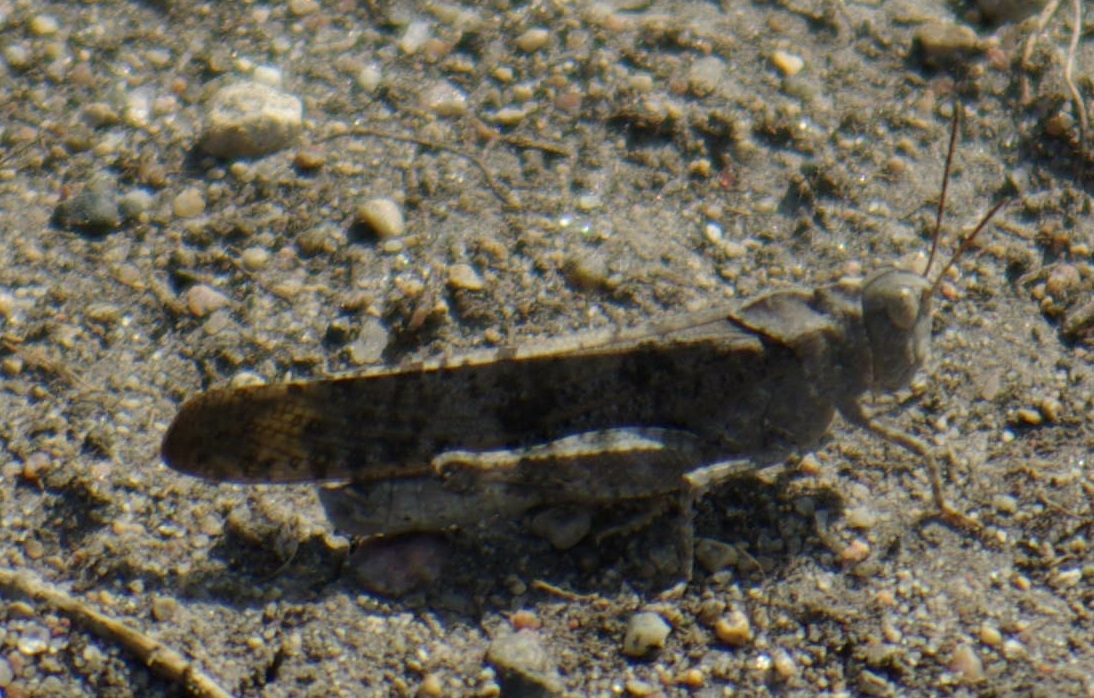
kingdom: Animalia
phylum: Arthropoda
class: Insecta
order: Orthoptera
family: Acrididae
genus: Dissosteira
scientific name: Dissosteira carolina
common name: Carolina grasshopper
